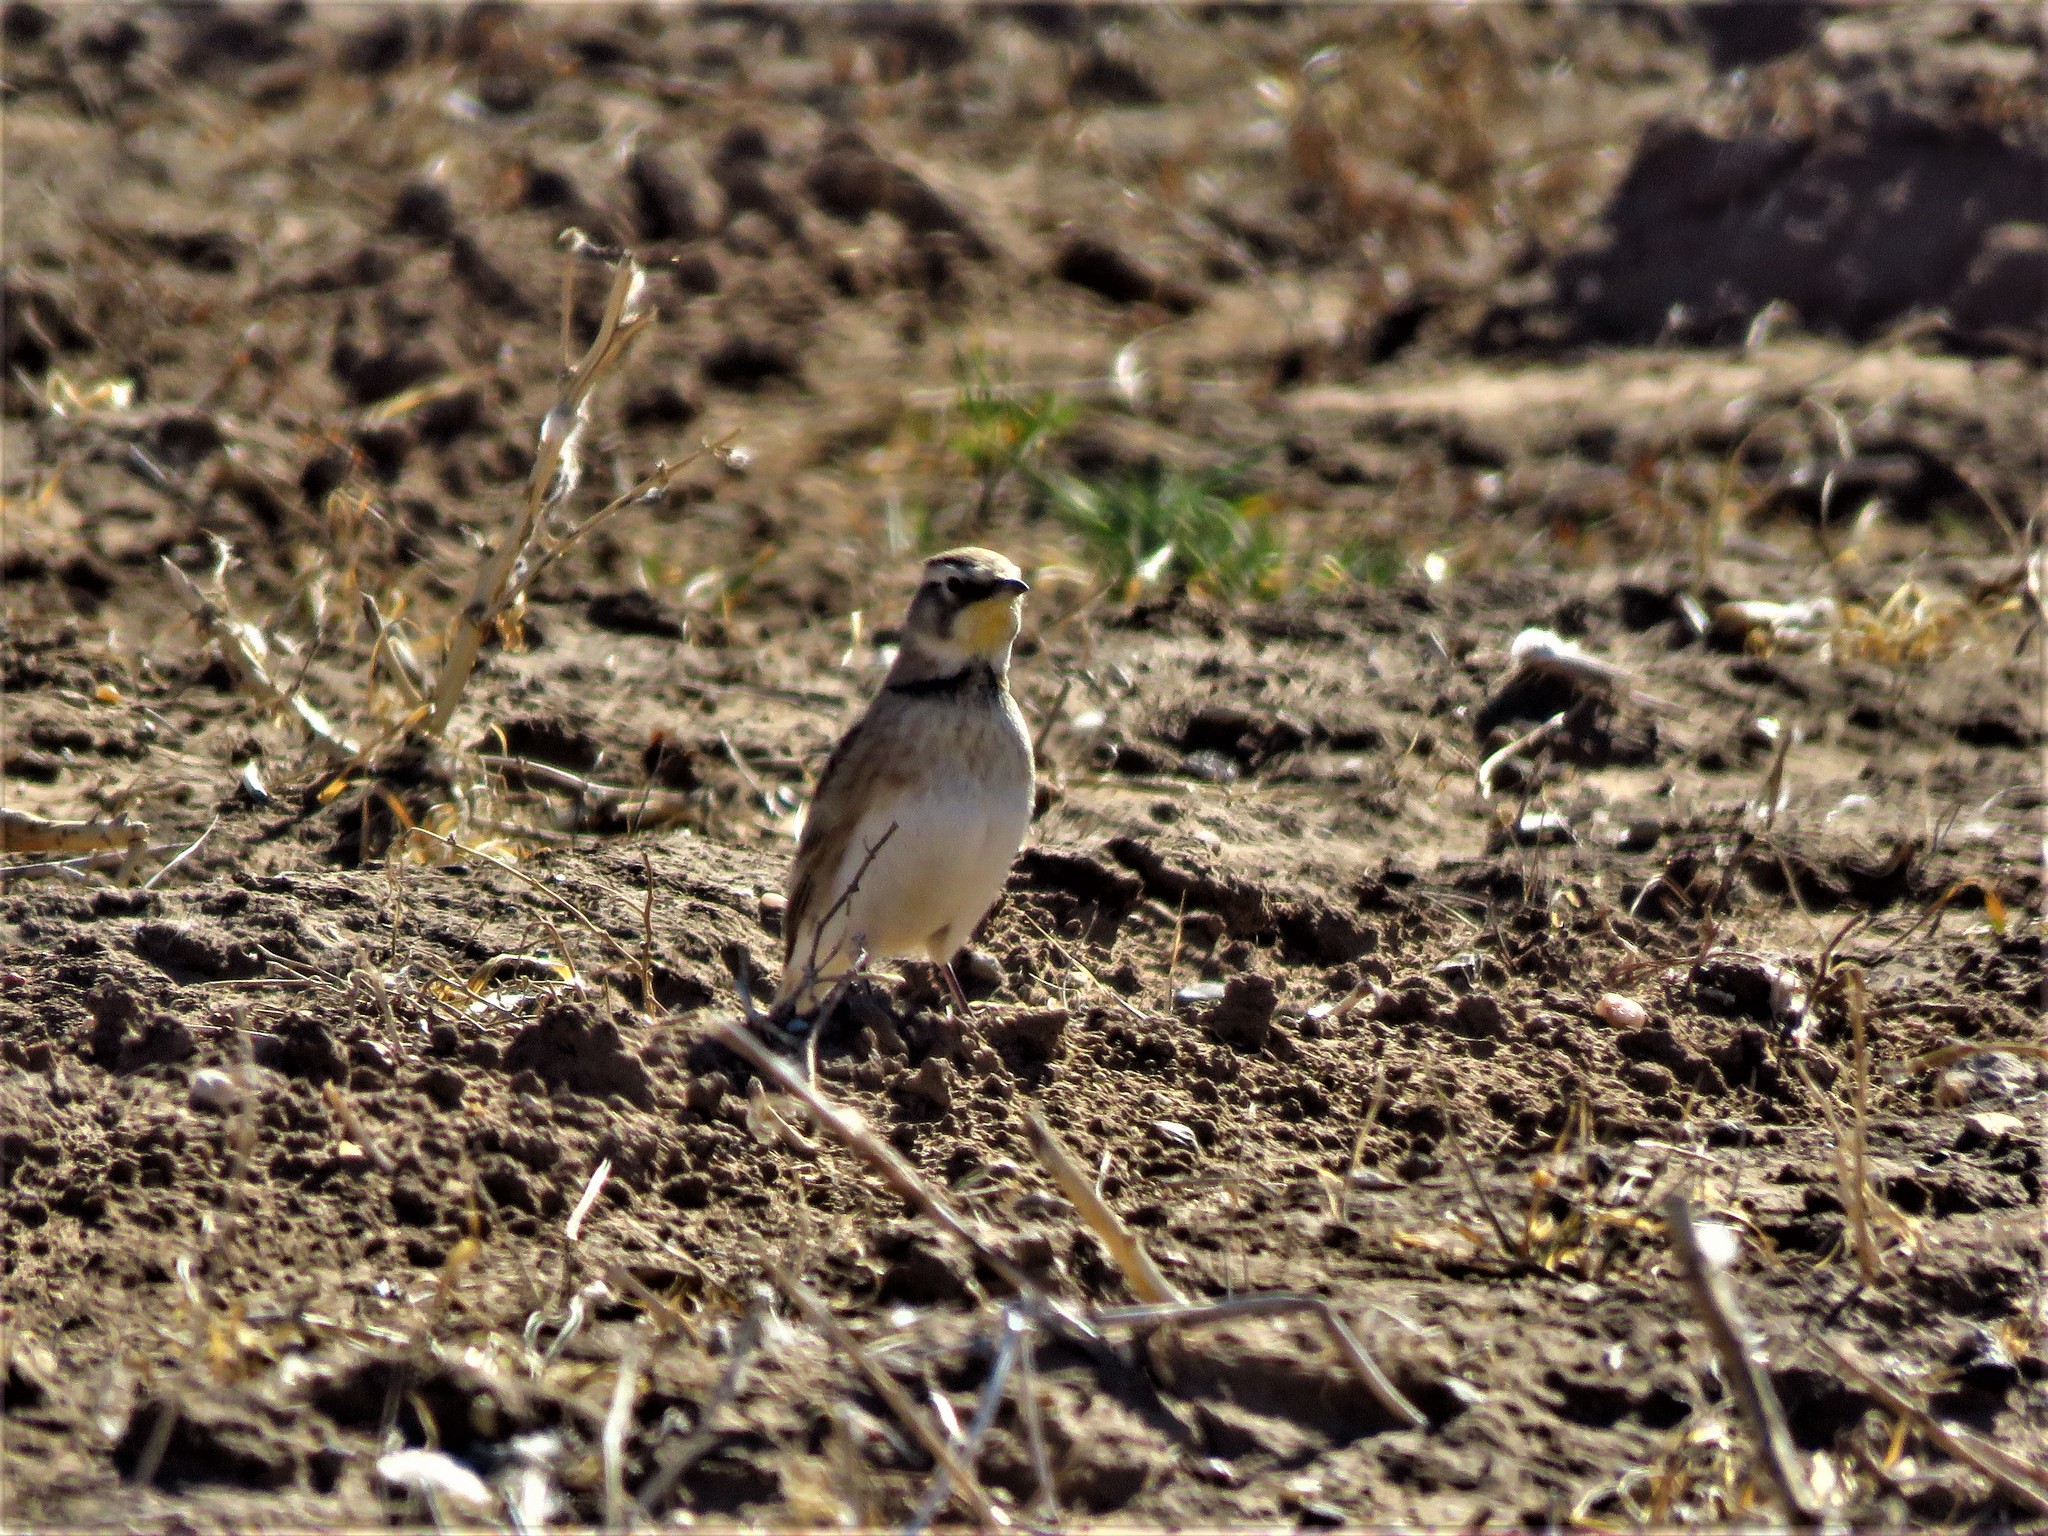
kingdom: Animalia
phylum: Chordata
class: Aves
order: Passeriformes
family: Alaudidae
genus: Eremophila
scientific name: Eremophila alpestris
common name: Horned lark
